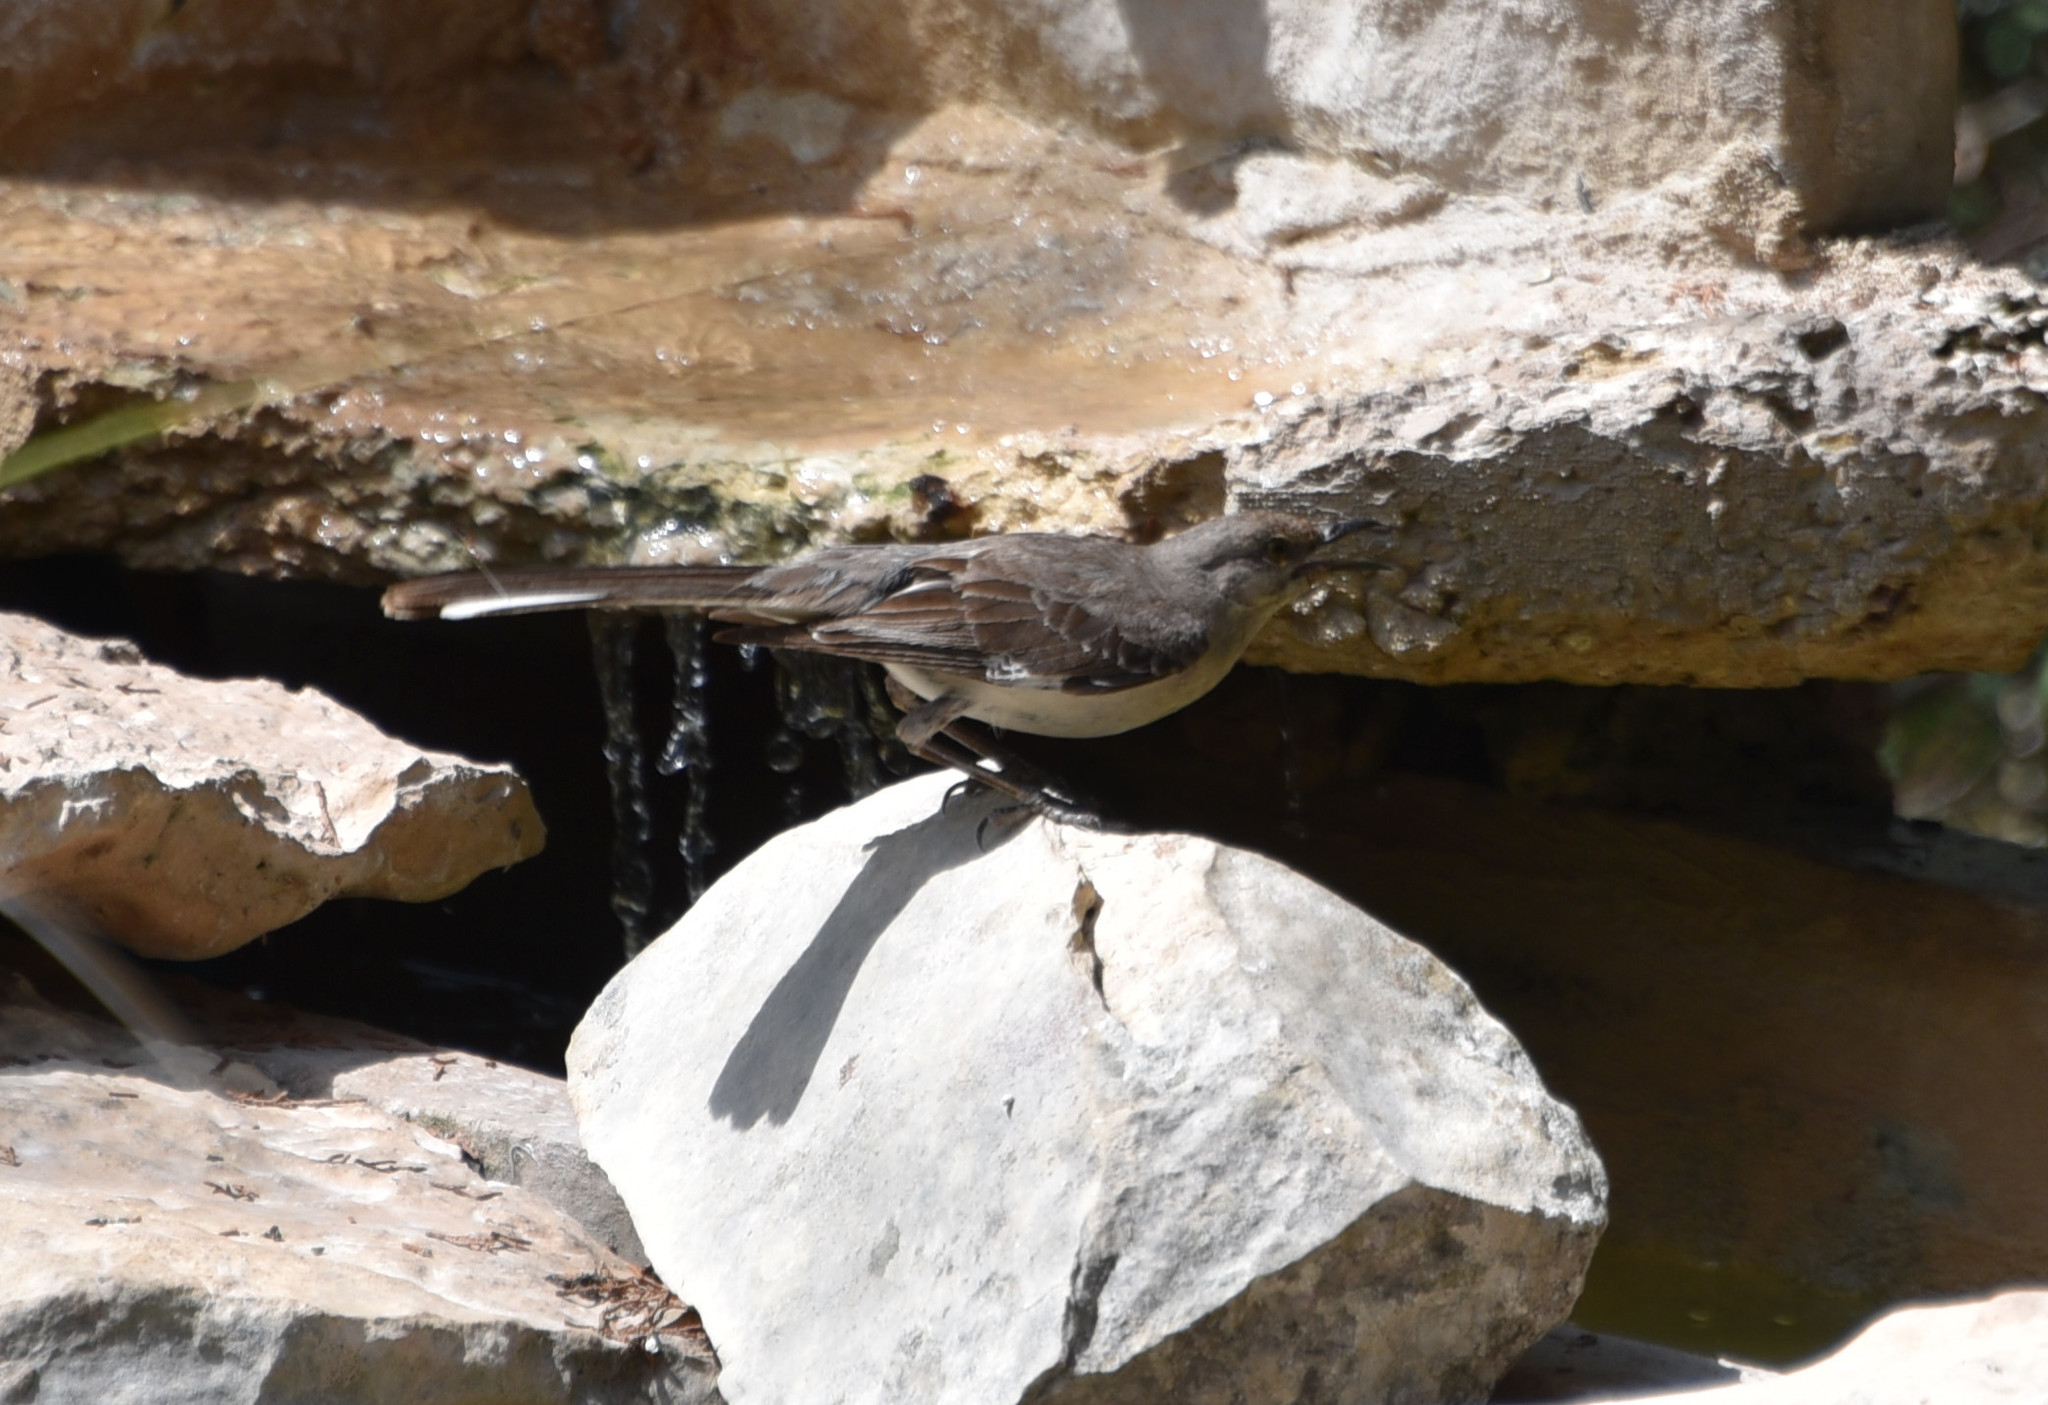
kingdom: Animalia
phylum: Chordata
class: Aves
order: Passeriformes
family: Mimidae
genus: Mimus
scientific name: Mimus polyglottos
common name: Northern mockingbird
